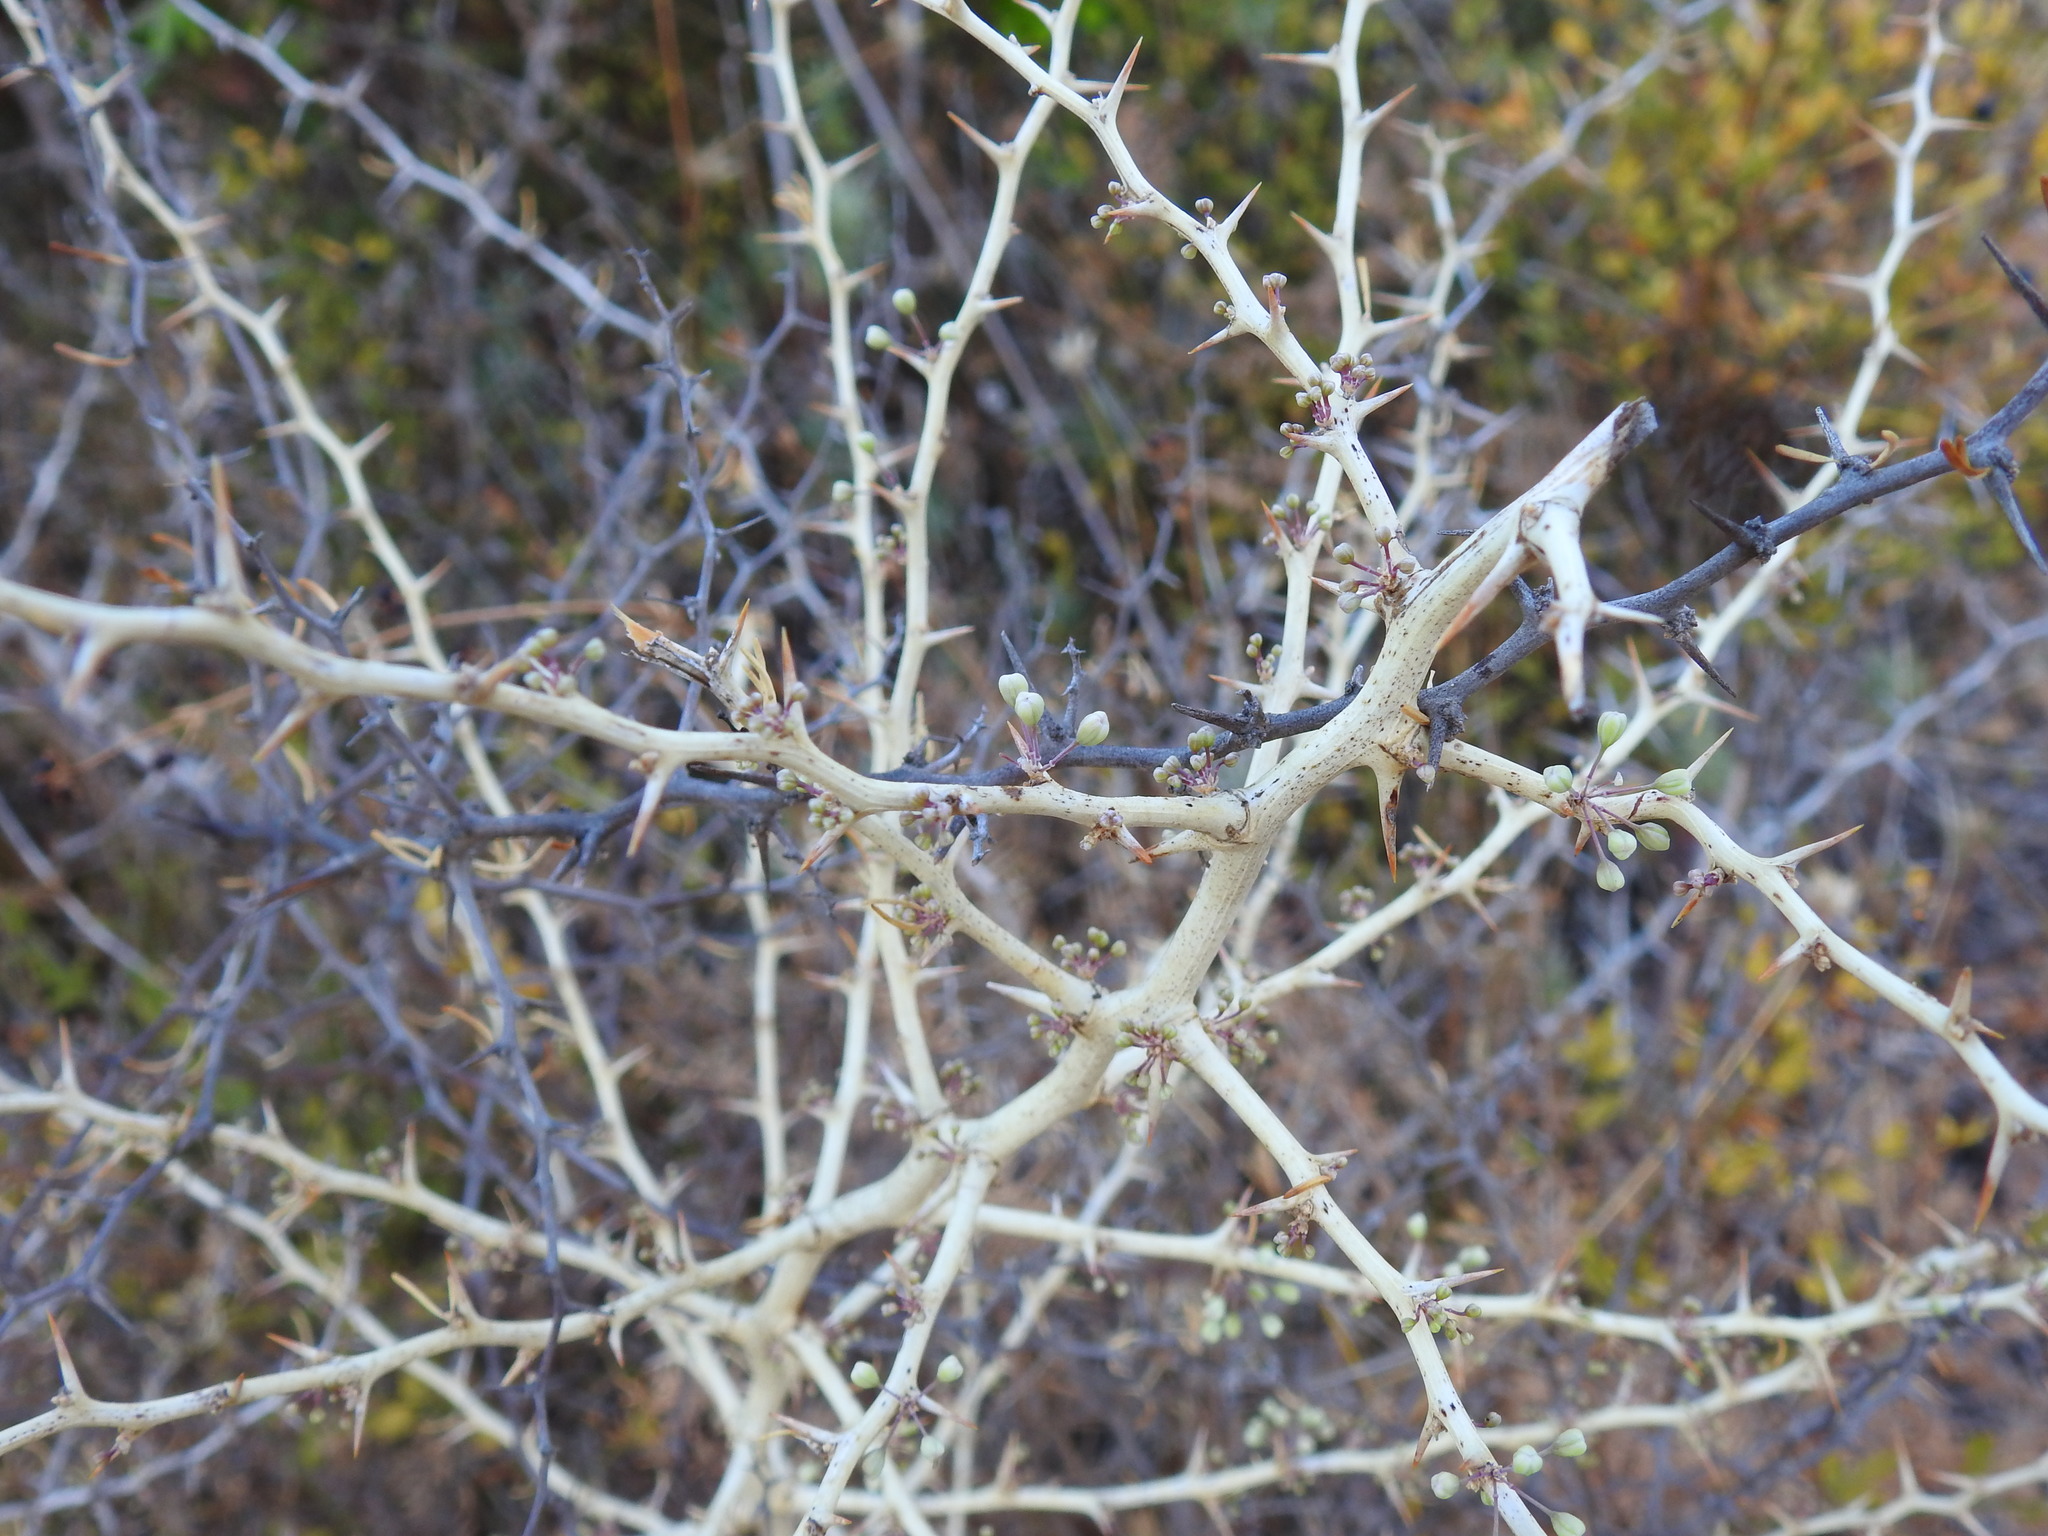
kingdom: Plantae
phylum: Tracheophyta
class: Liliopsida
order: Asparagales
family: Asparagaceae
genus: Asparagus
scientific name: Asparagus albus
